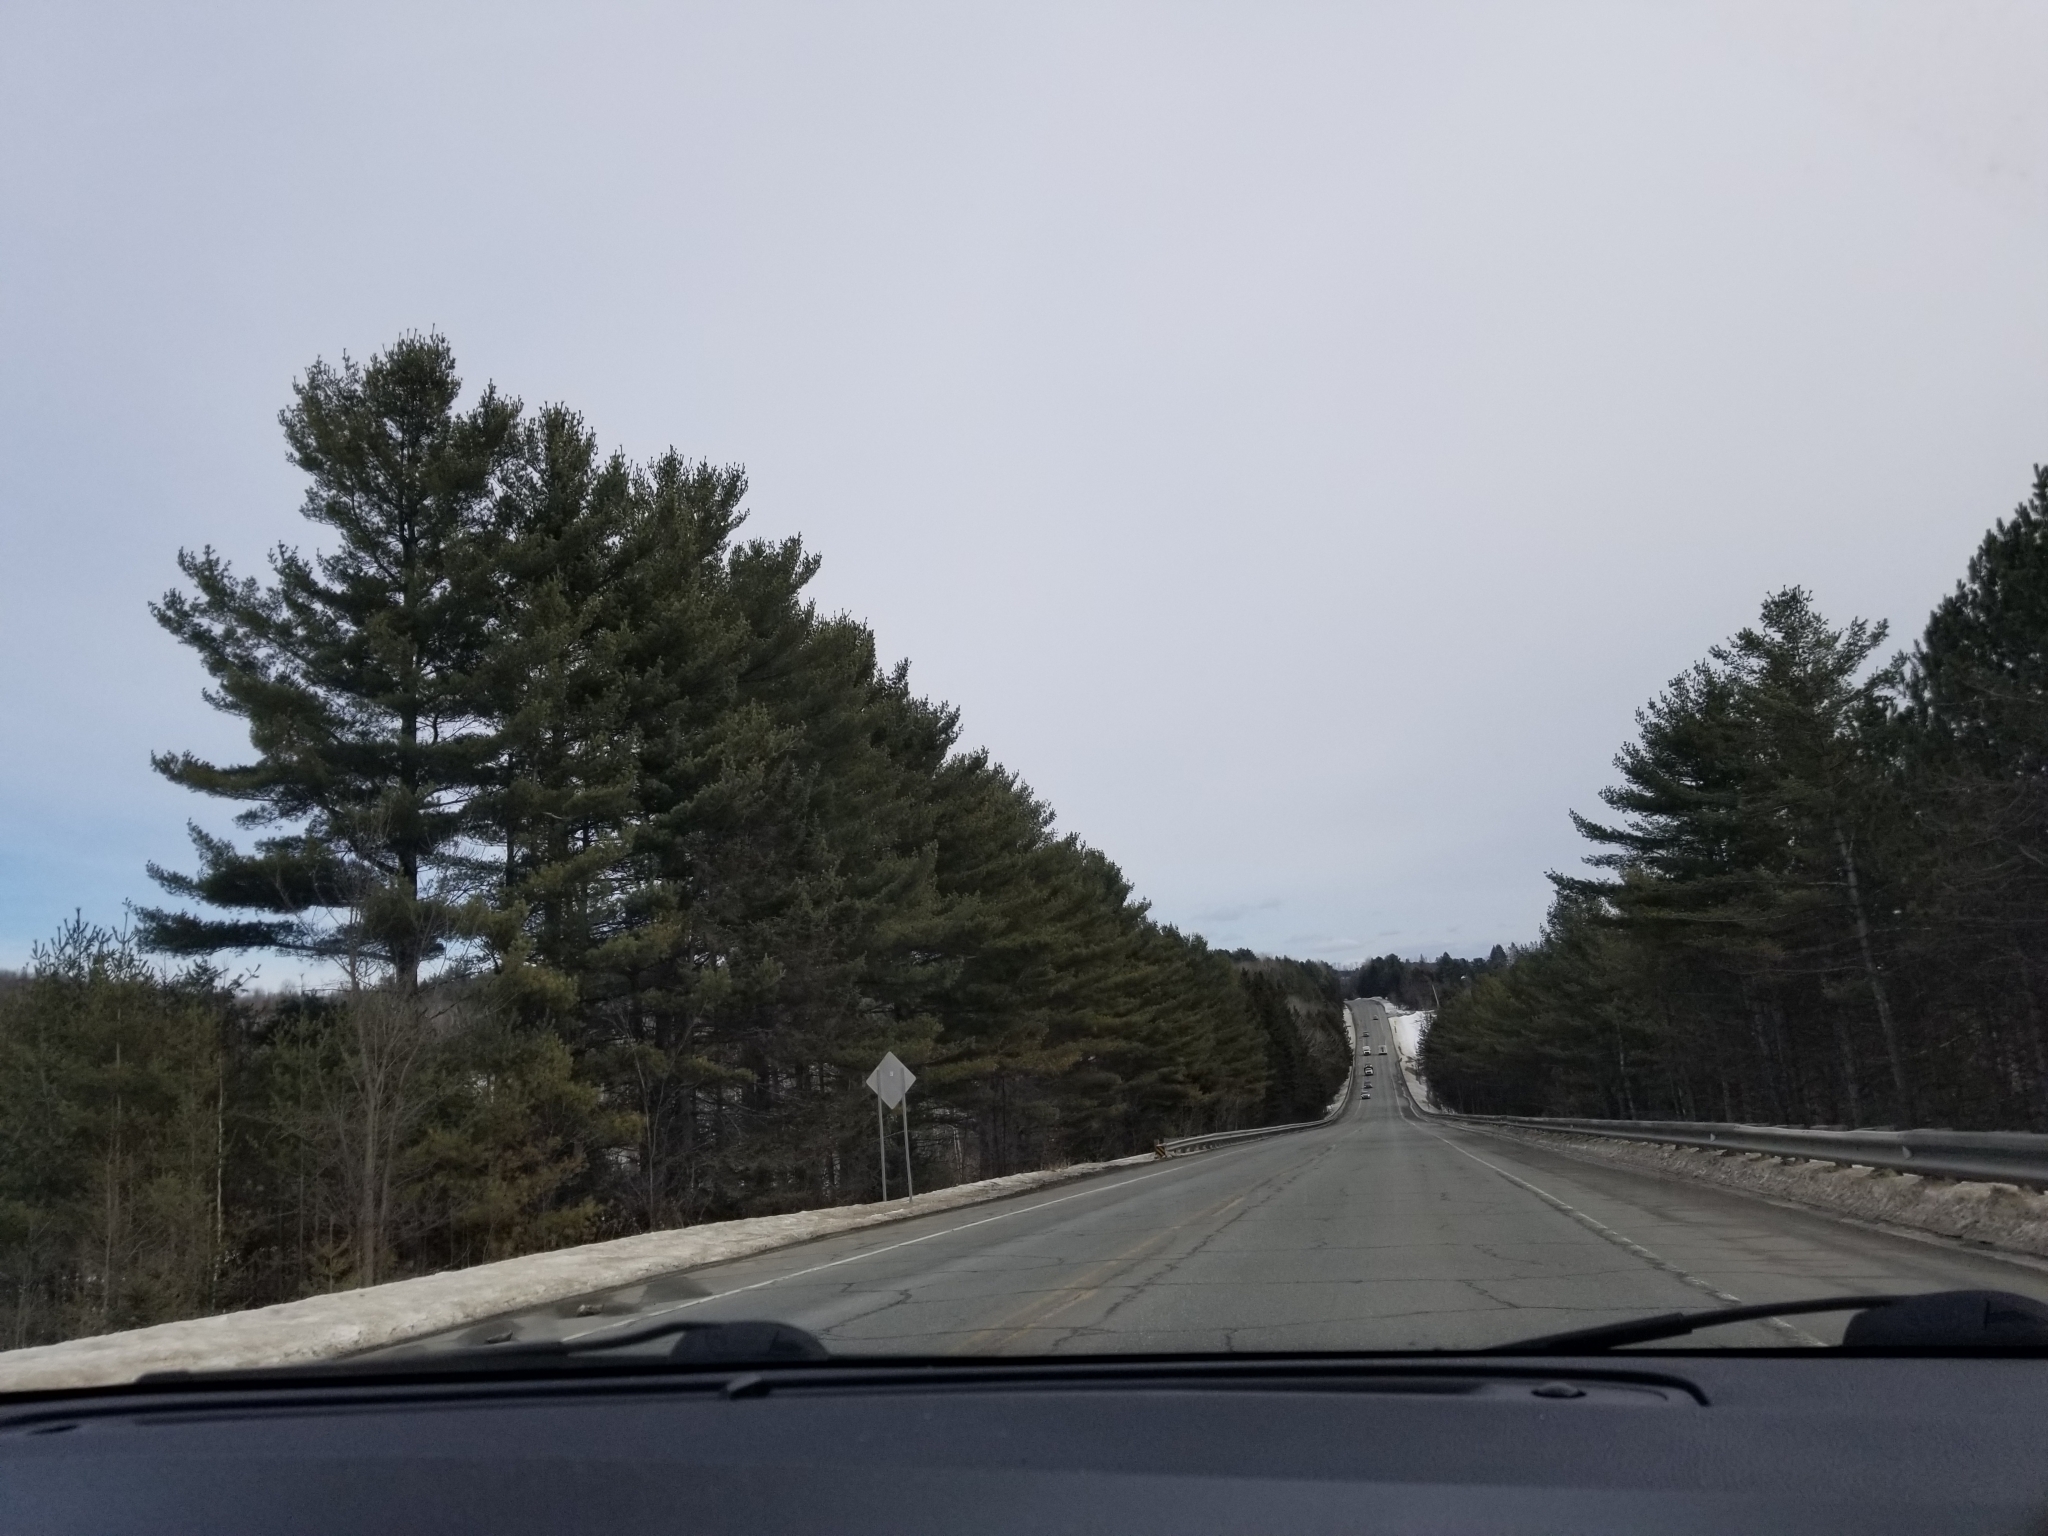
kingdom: Plantae
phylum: Tracheophyta
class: Pinopsida
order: Pinales
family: Pinaceae
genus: Pinus
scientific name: Pinus strobus
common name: Weymouth pine
